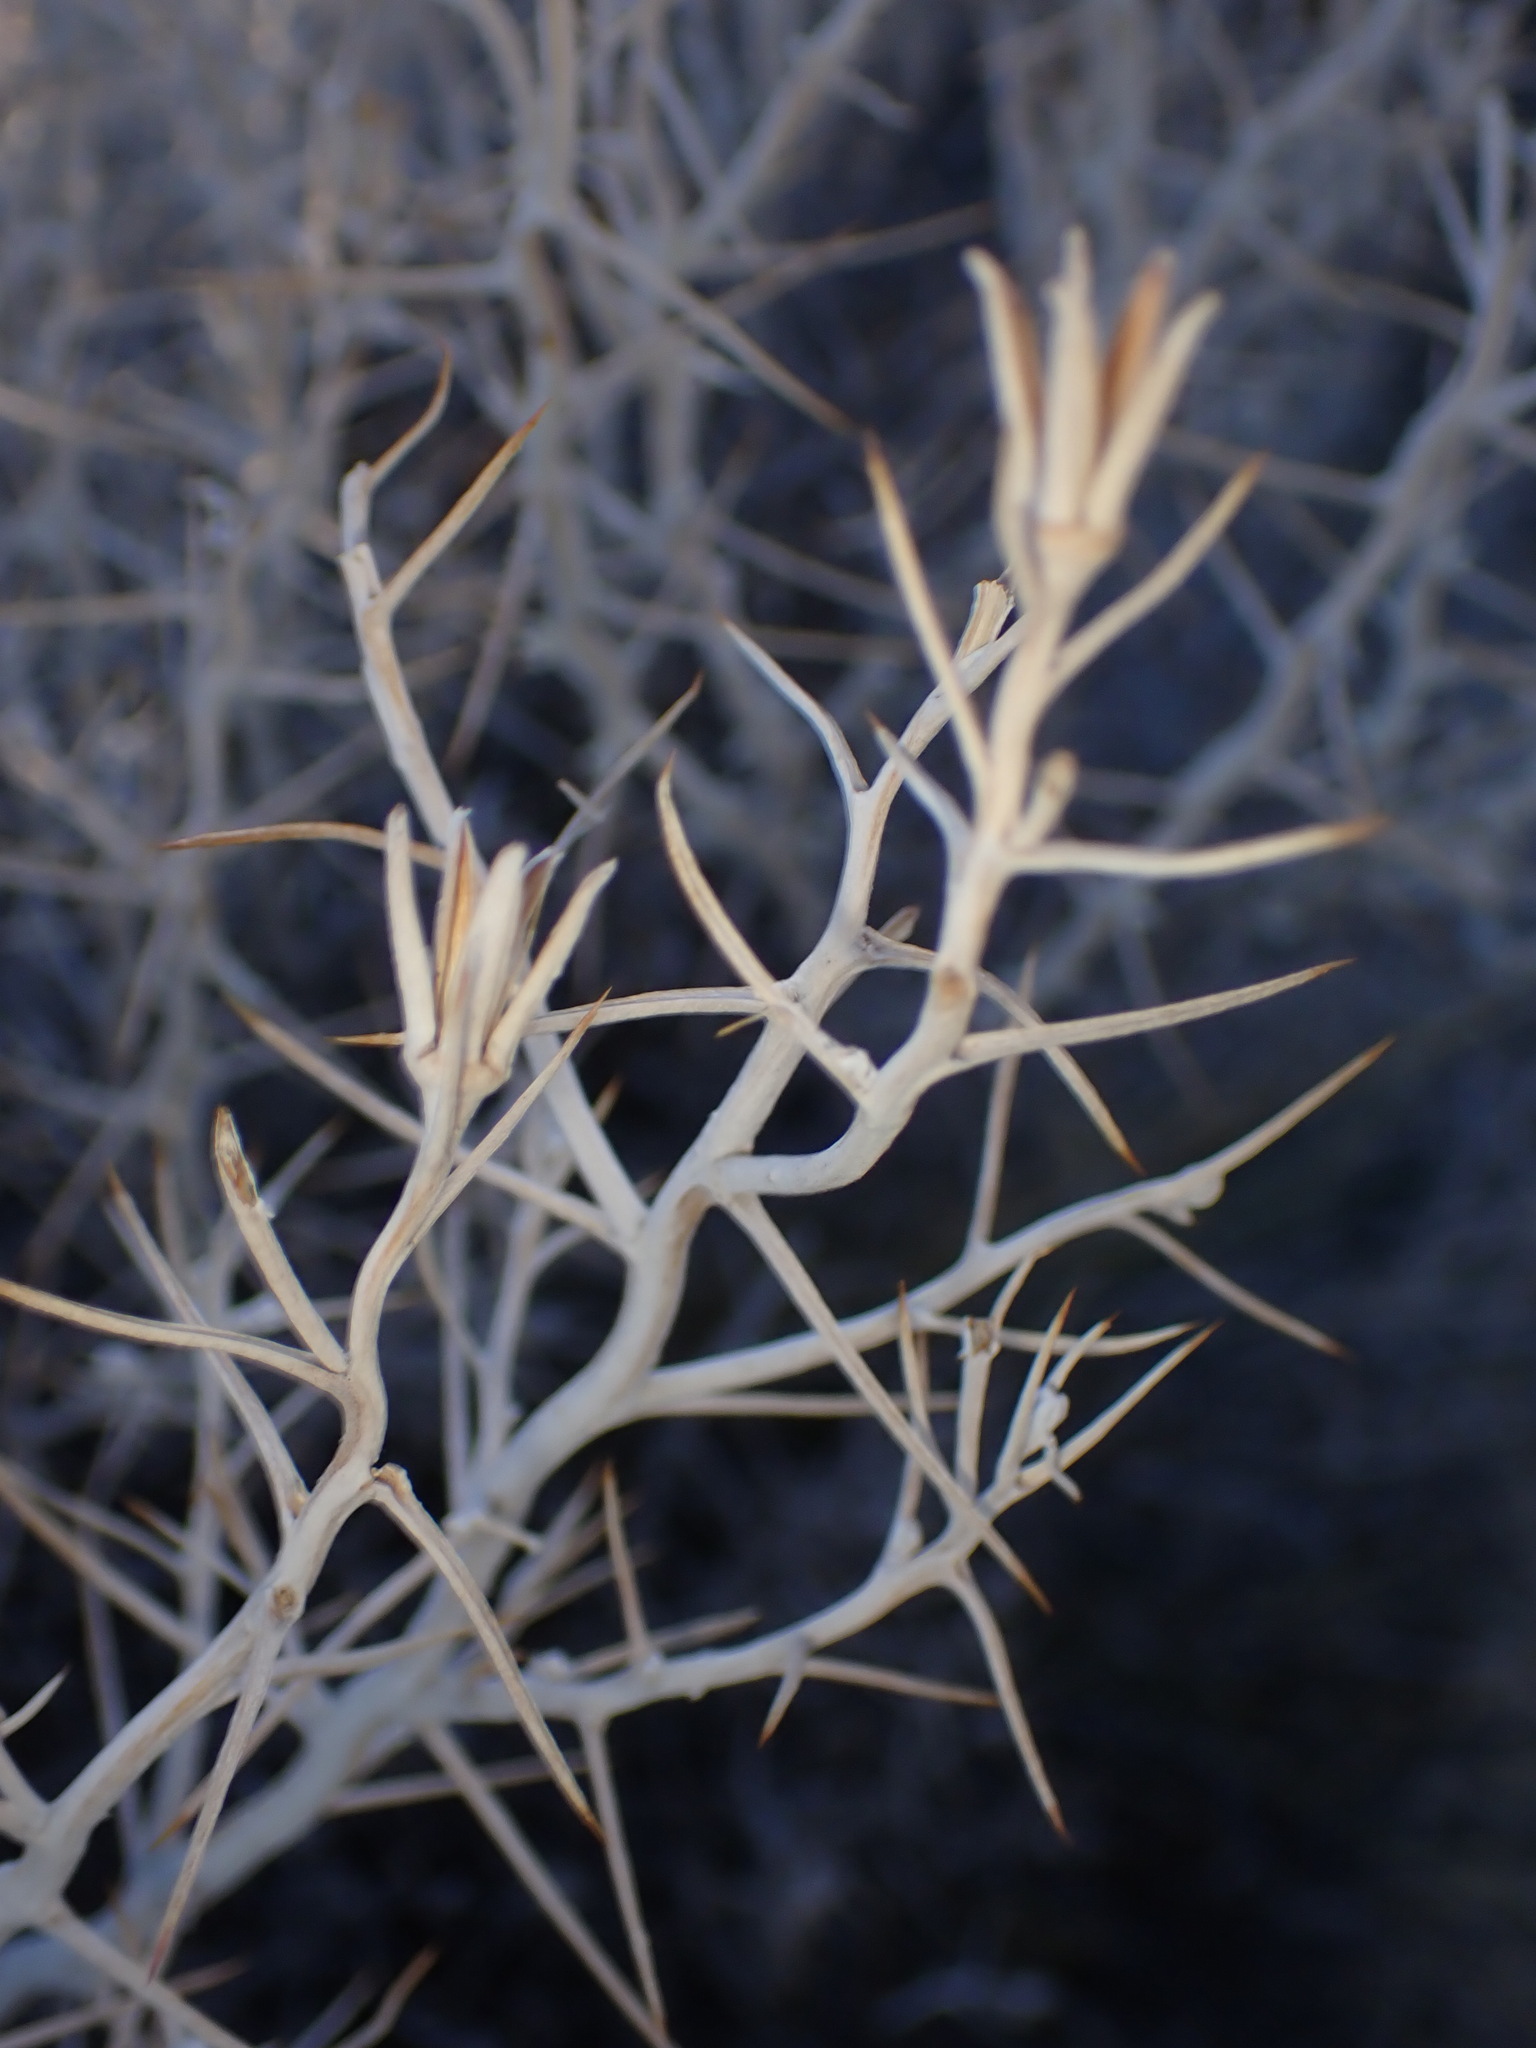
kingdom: Plantae
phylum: Tracheophyta
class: Magnoliopsida
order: Asterales
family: Asteraceae
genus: Tetradymia
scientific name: Tetradymia stenolepis
